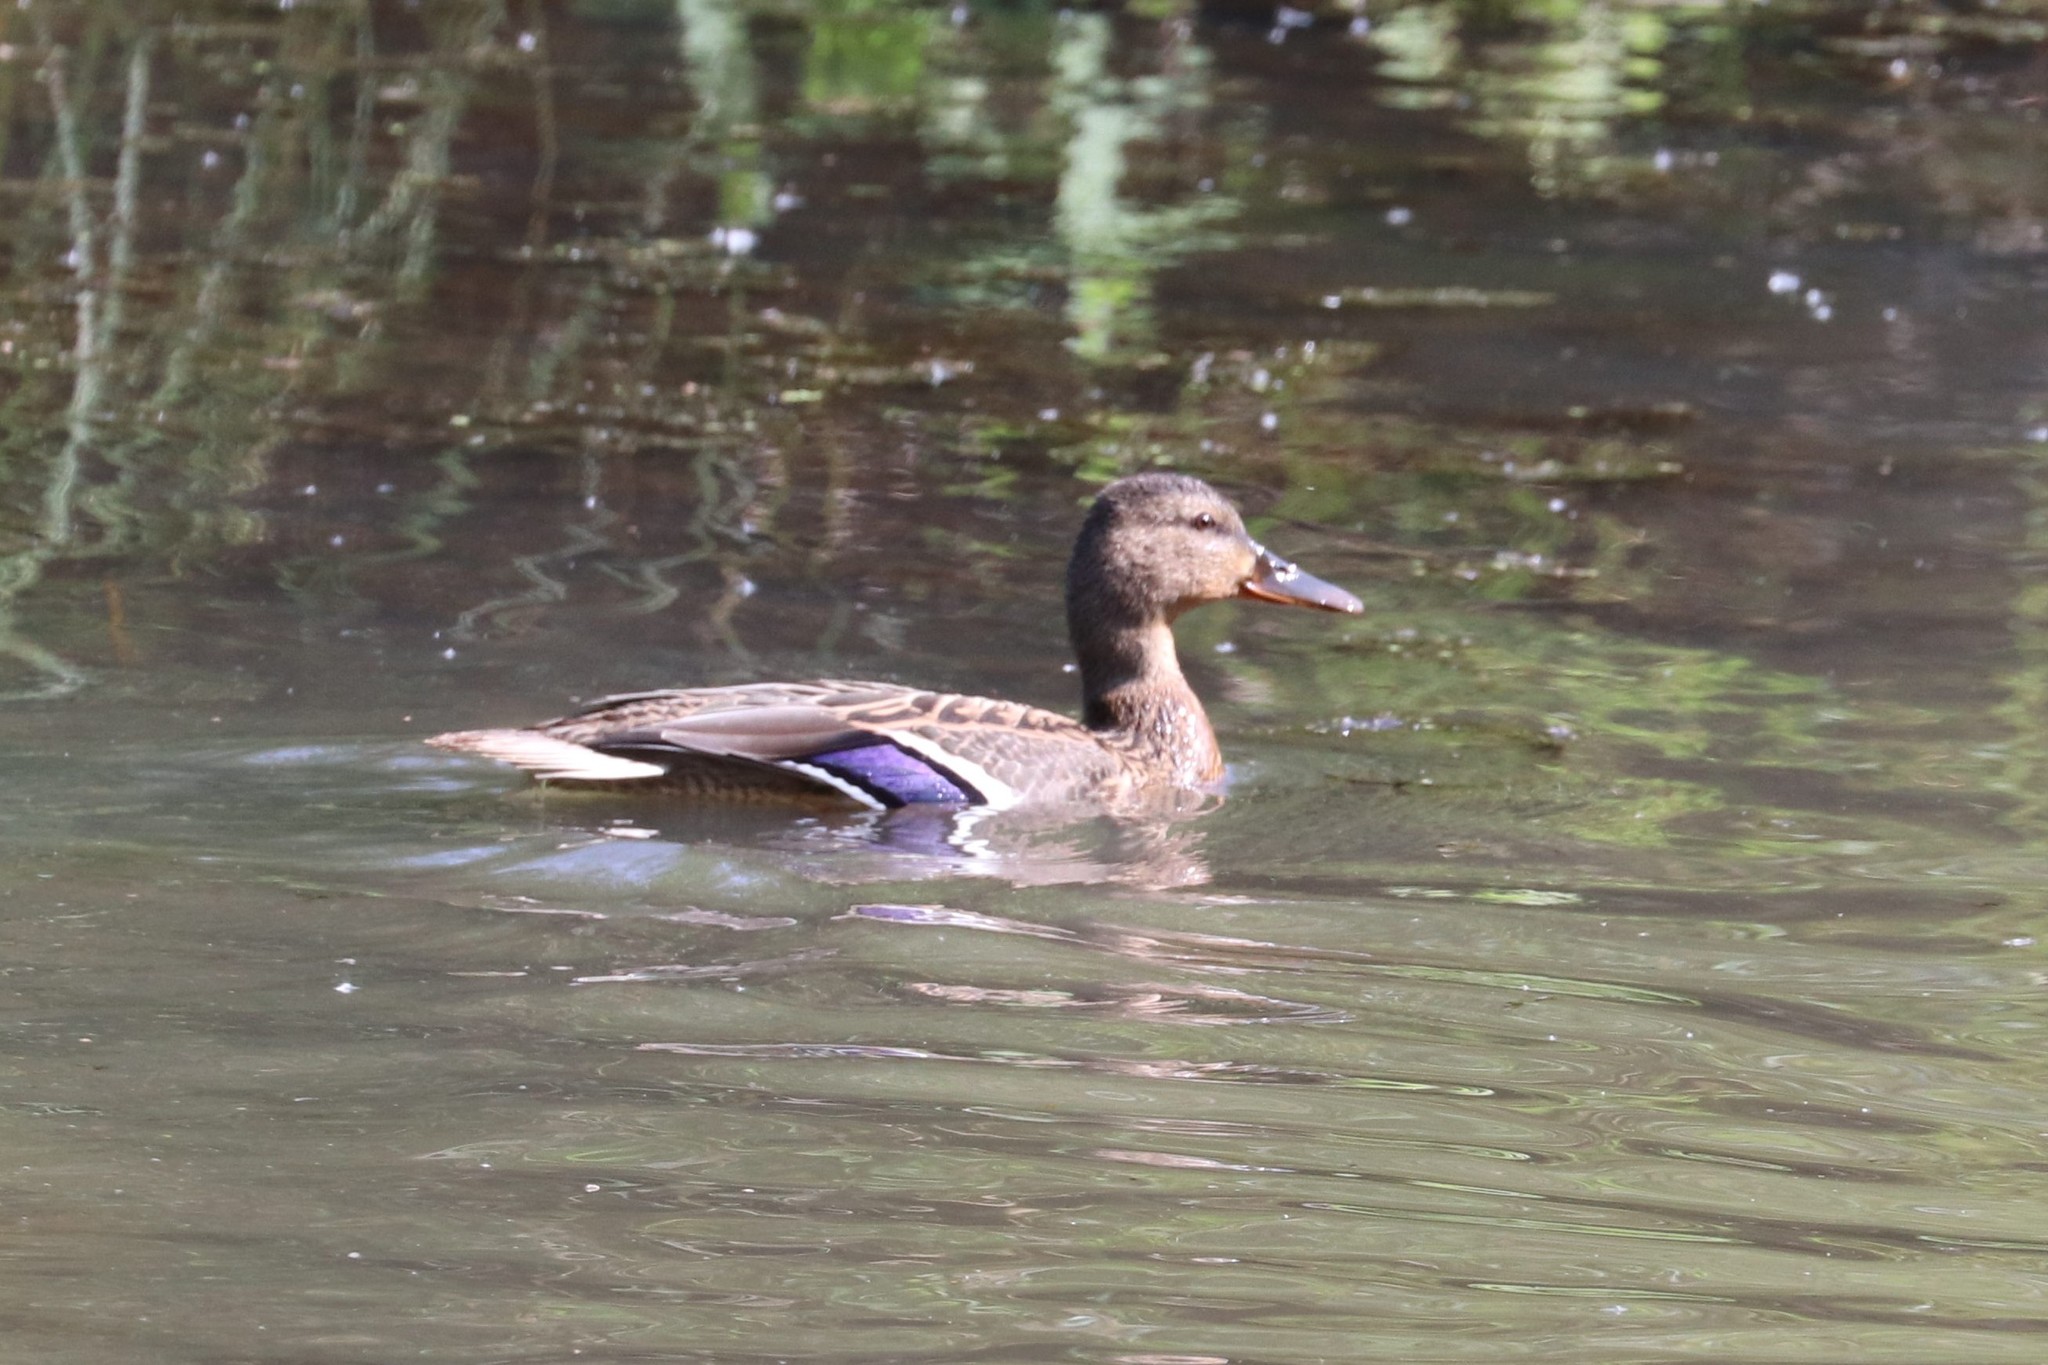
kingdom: Animalia
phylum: Chordata
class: Aves
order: Anseriformes
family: Anatidae
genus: Anas
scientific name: Anas platyrhynchos
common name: Mallard
